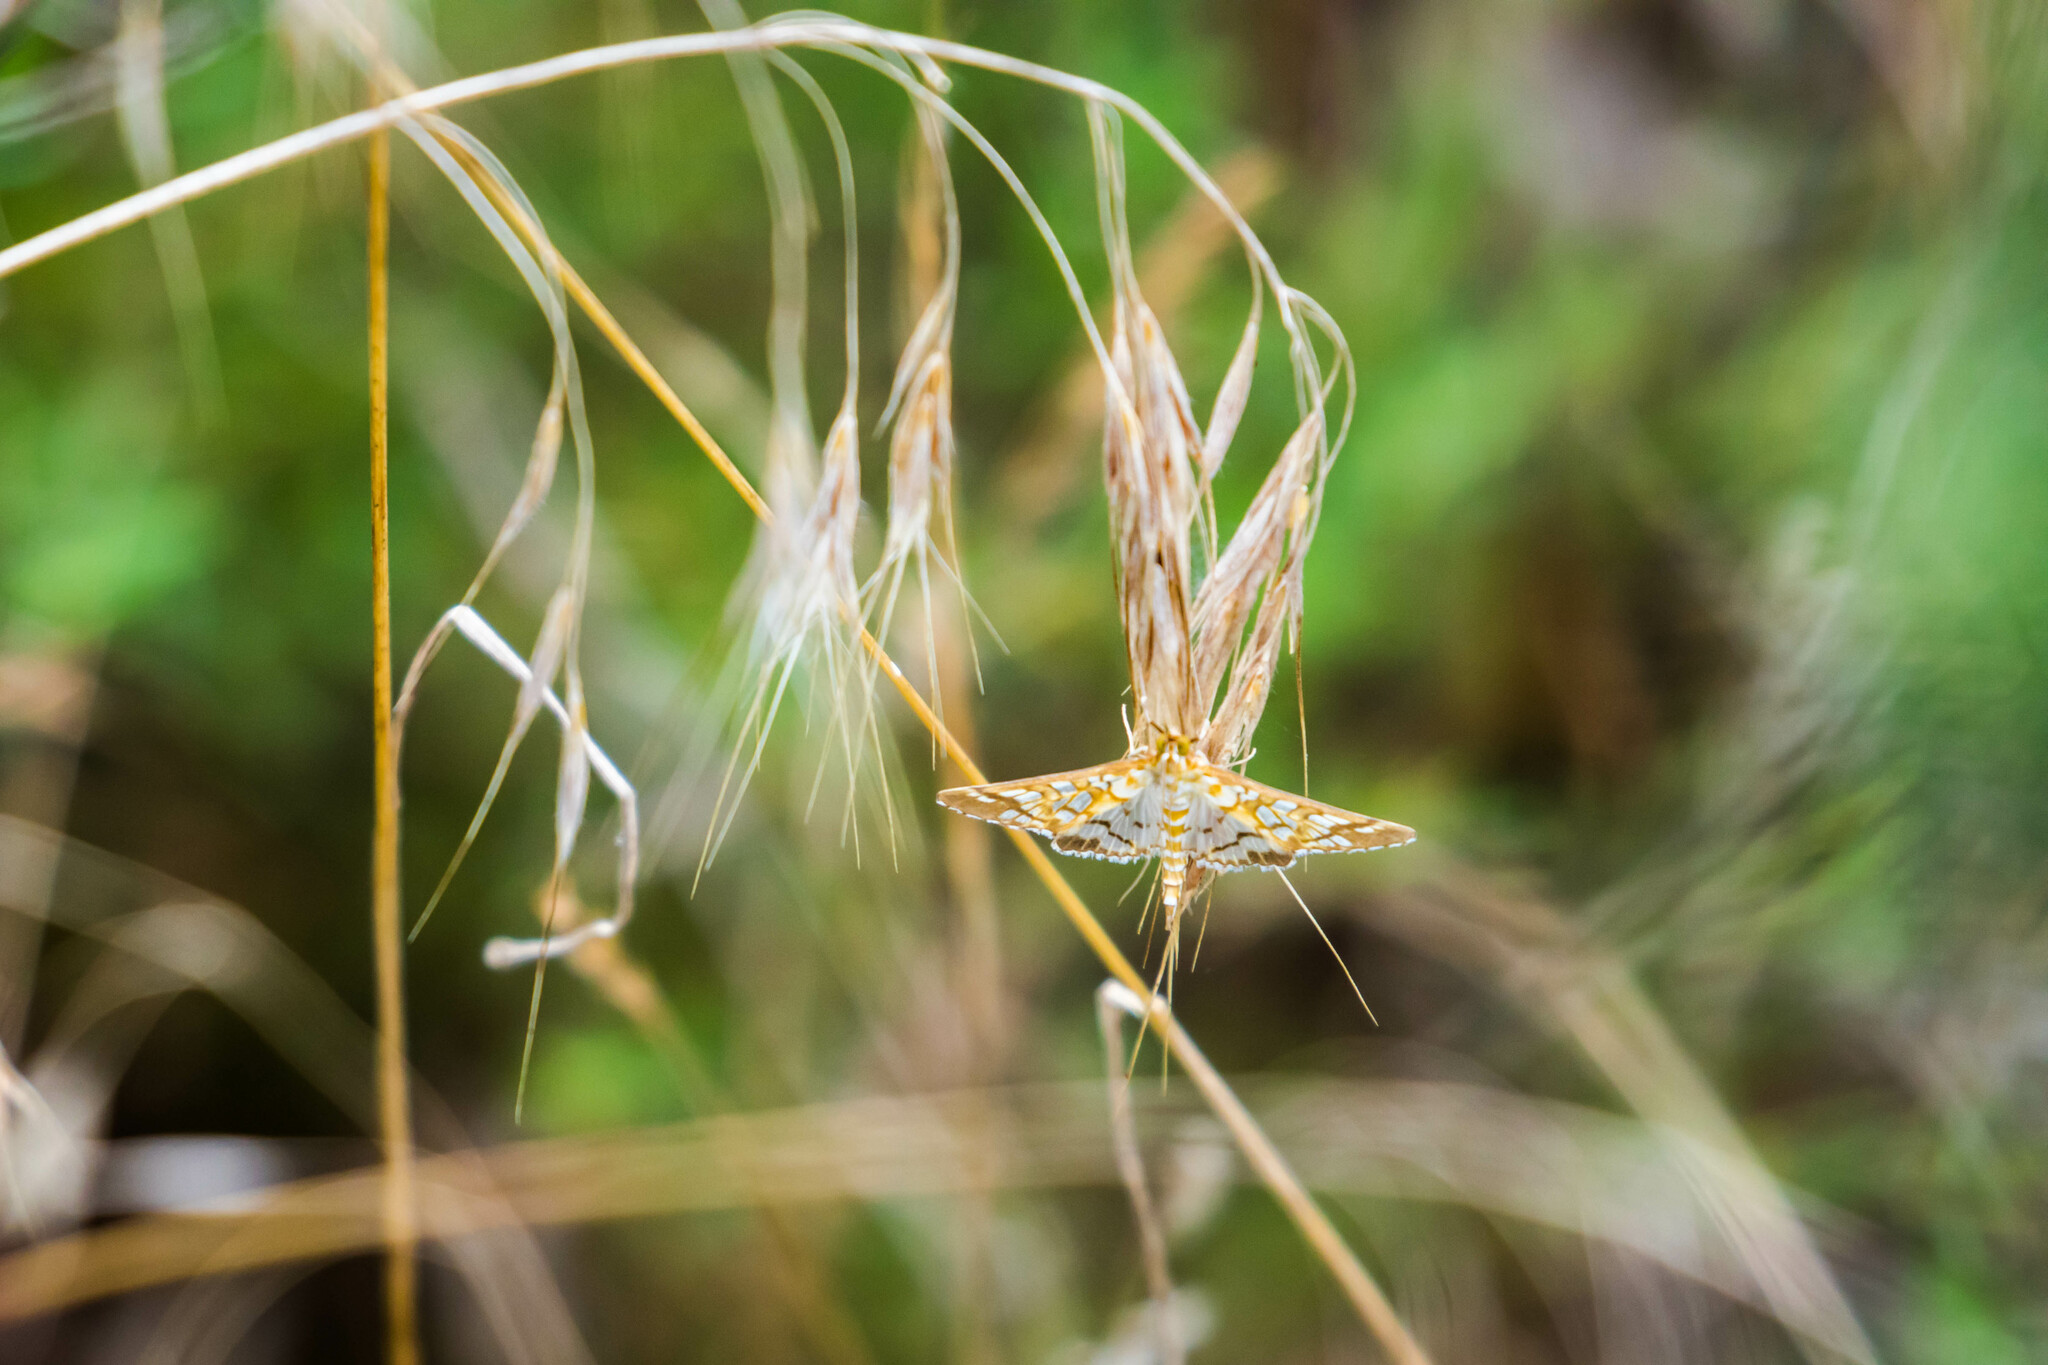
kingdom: Animalia
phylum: Arthropoda
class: Insecta
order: Lepidoptera
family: Crambidae
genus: Epipagis
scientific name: Epipagis fenestralis
